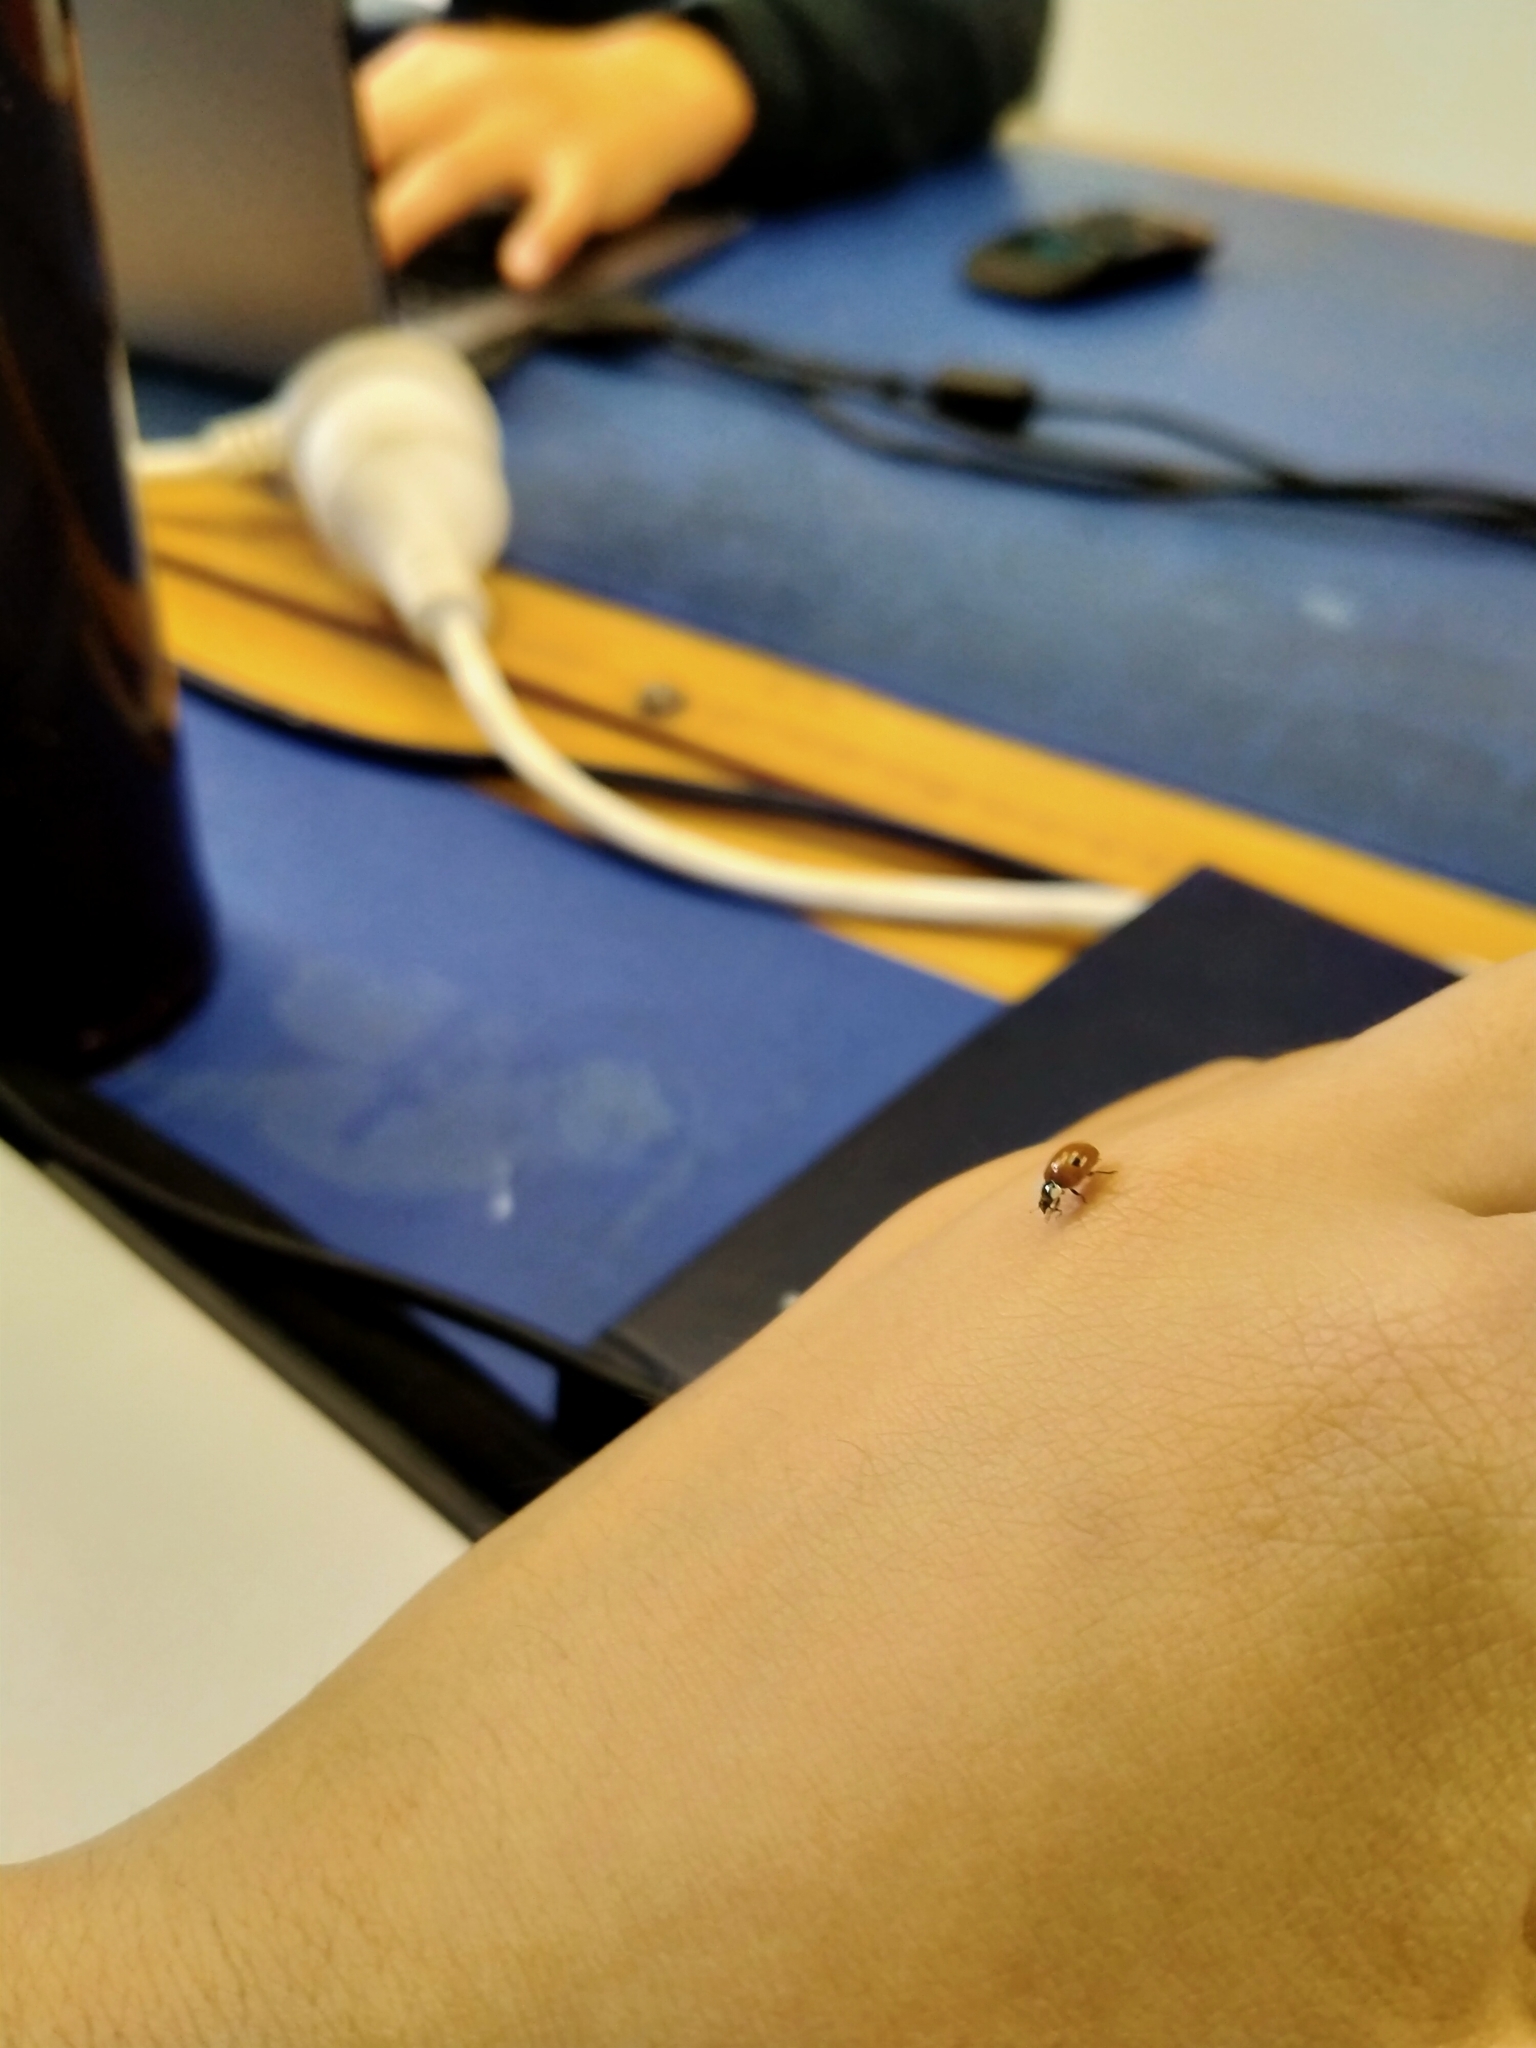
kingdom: Animalia
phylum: Arthropoda
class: Insecta
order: Coleoptera
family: Coccinellidae
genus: Adalia
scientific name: Adalia bipunctata
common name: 2-spot ladybird
